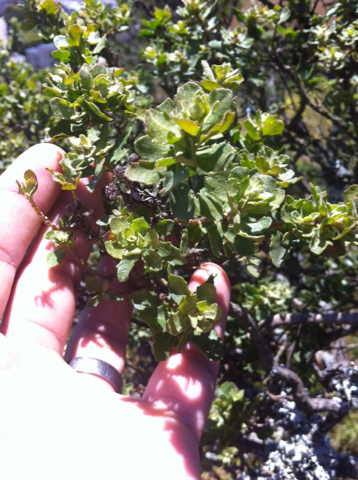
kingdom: Plantae
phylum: Tracheophyta
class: Magnoliopsida
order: Asterales
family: Asteraceae
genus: Baccharis
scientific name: Baccharis pilularis
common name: Coyotebrush
